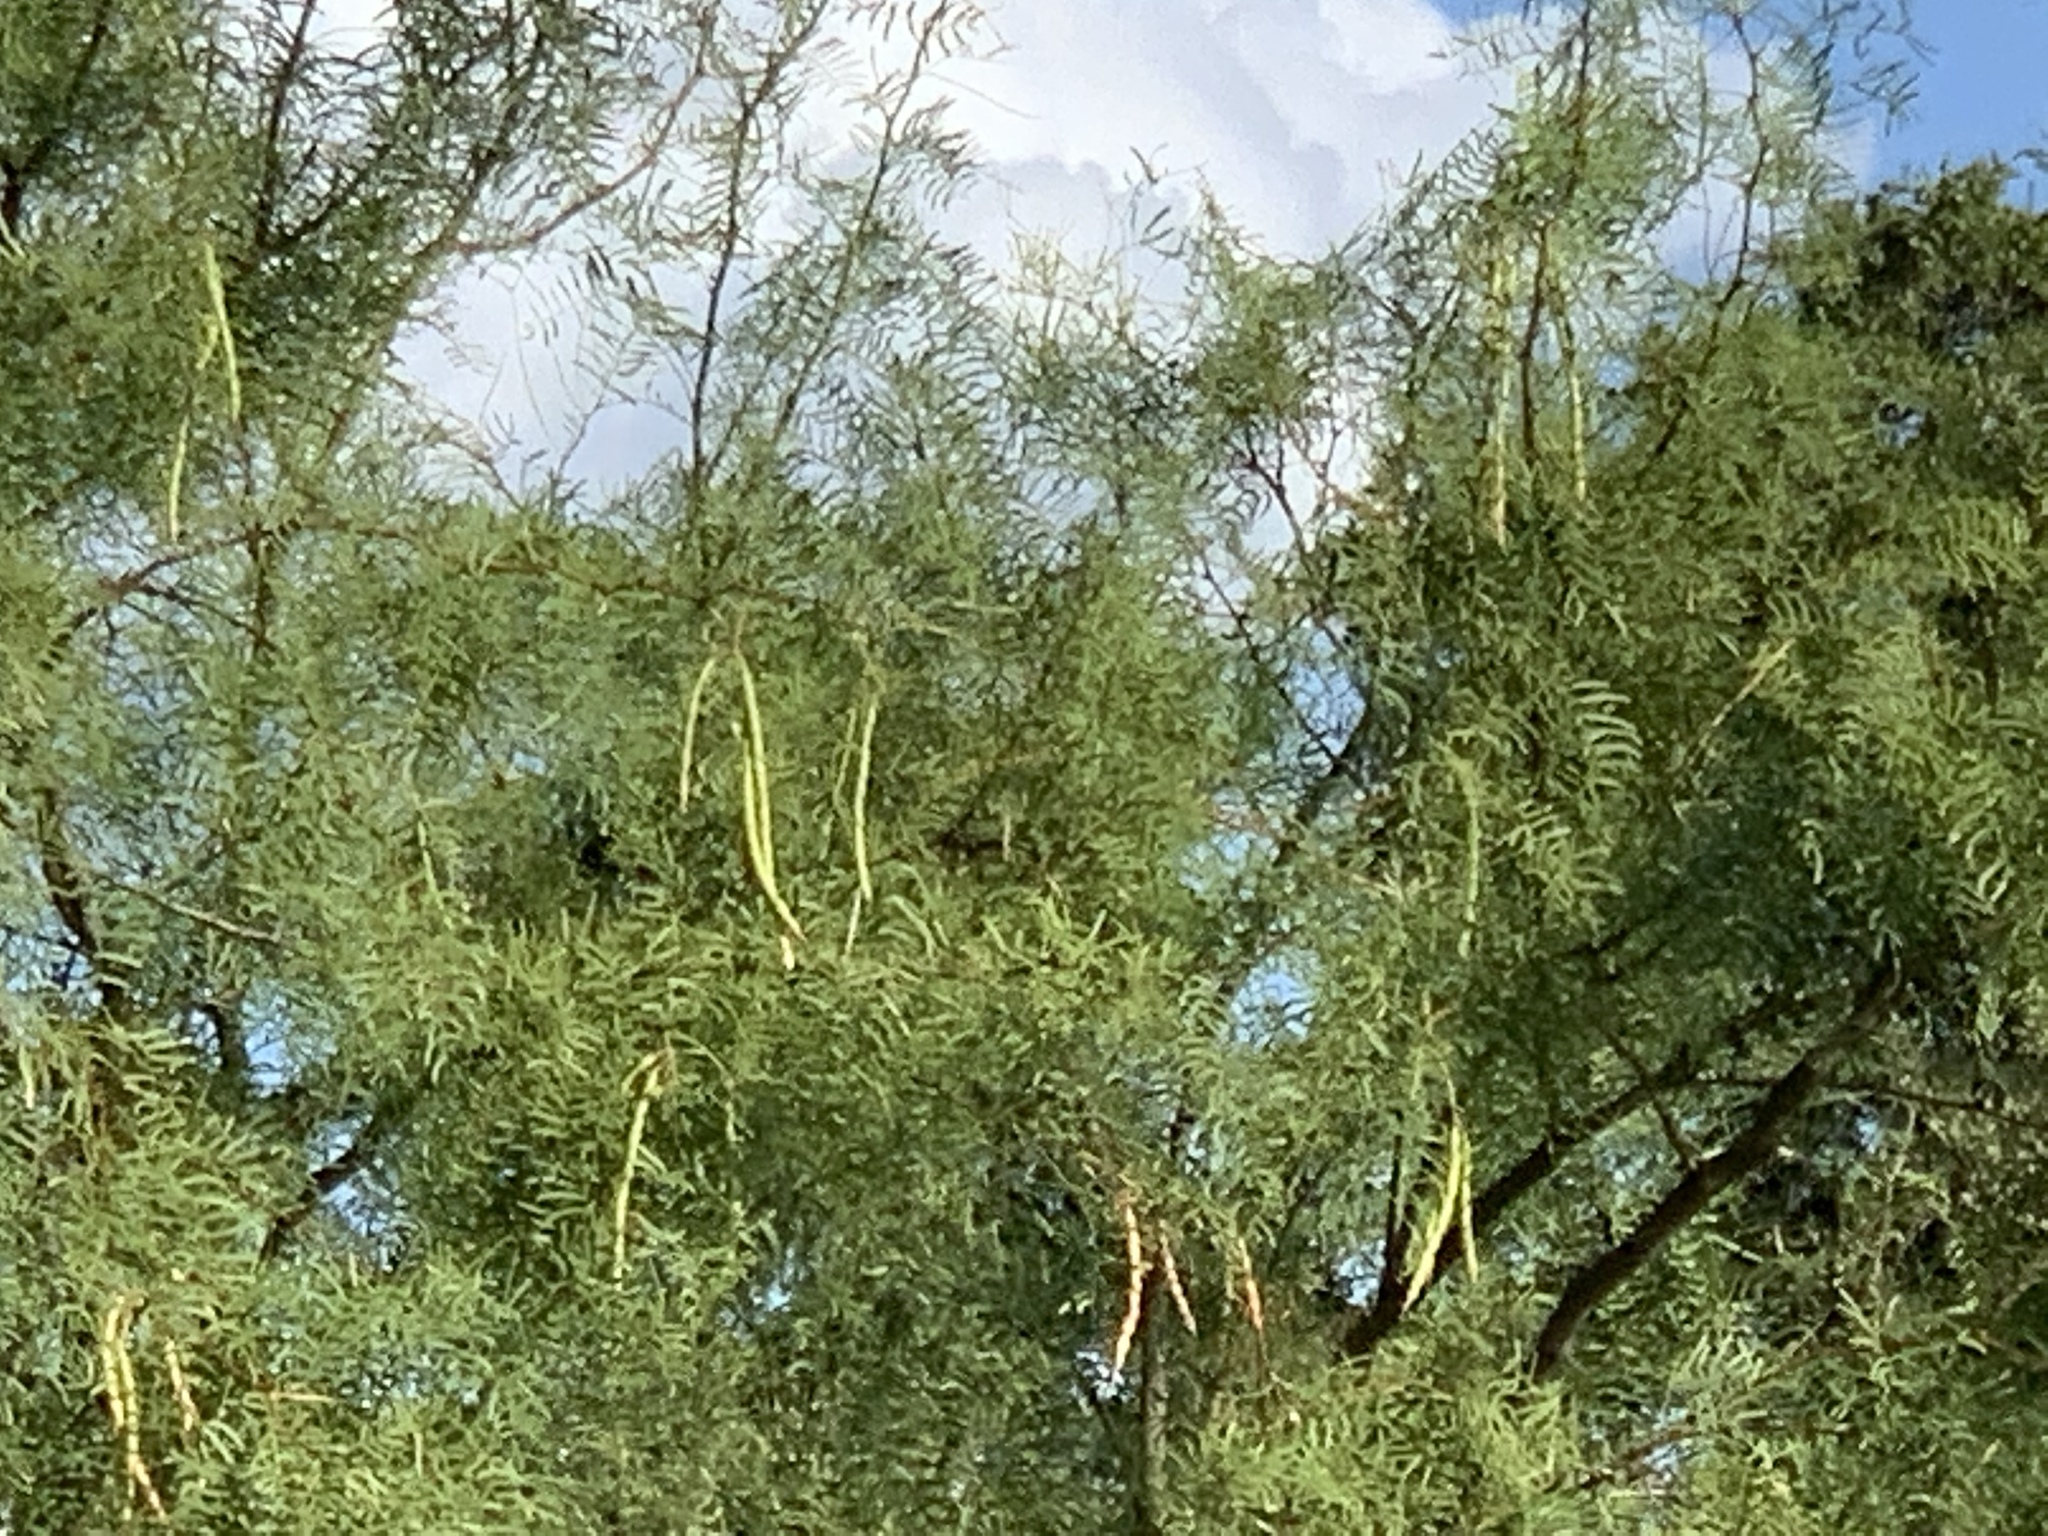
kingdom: Plantae
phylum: Tracheophyta
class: Magnoliopsida
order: Fabales
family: Fabaceae
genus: Prosopis
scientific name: Prosopis glandulosa
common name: Honey mesquite
